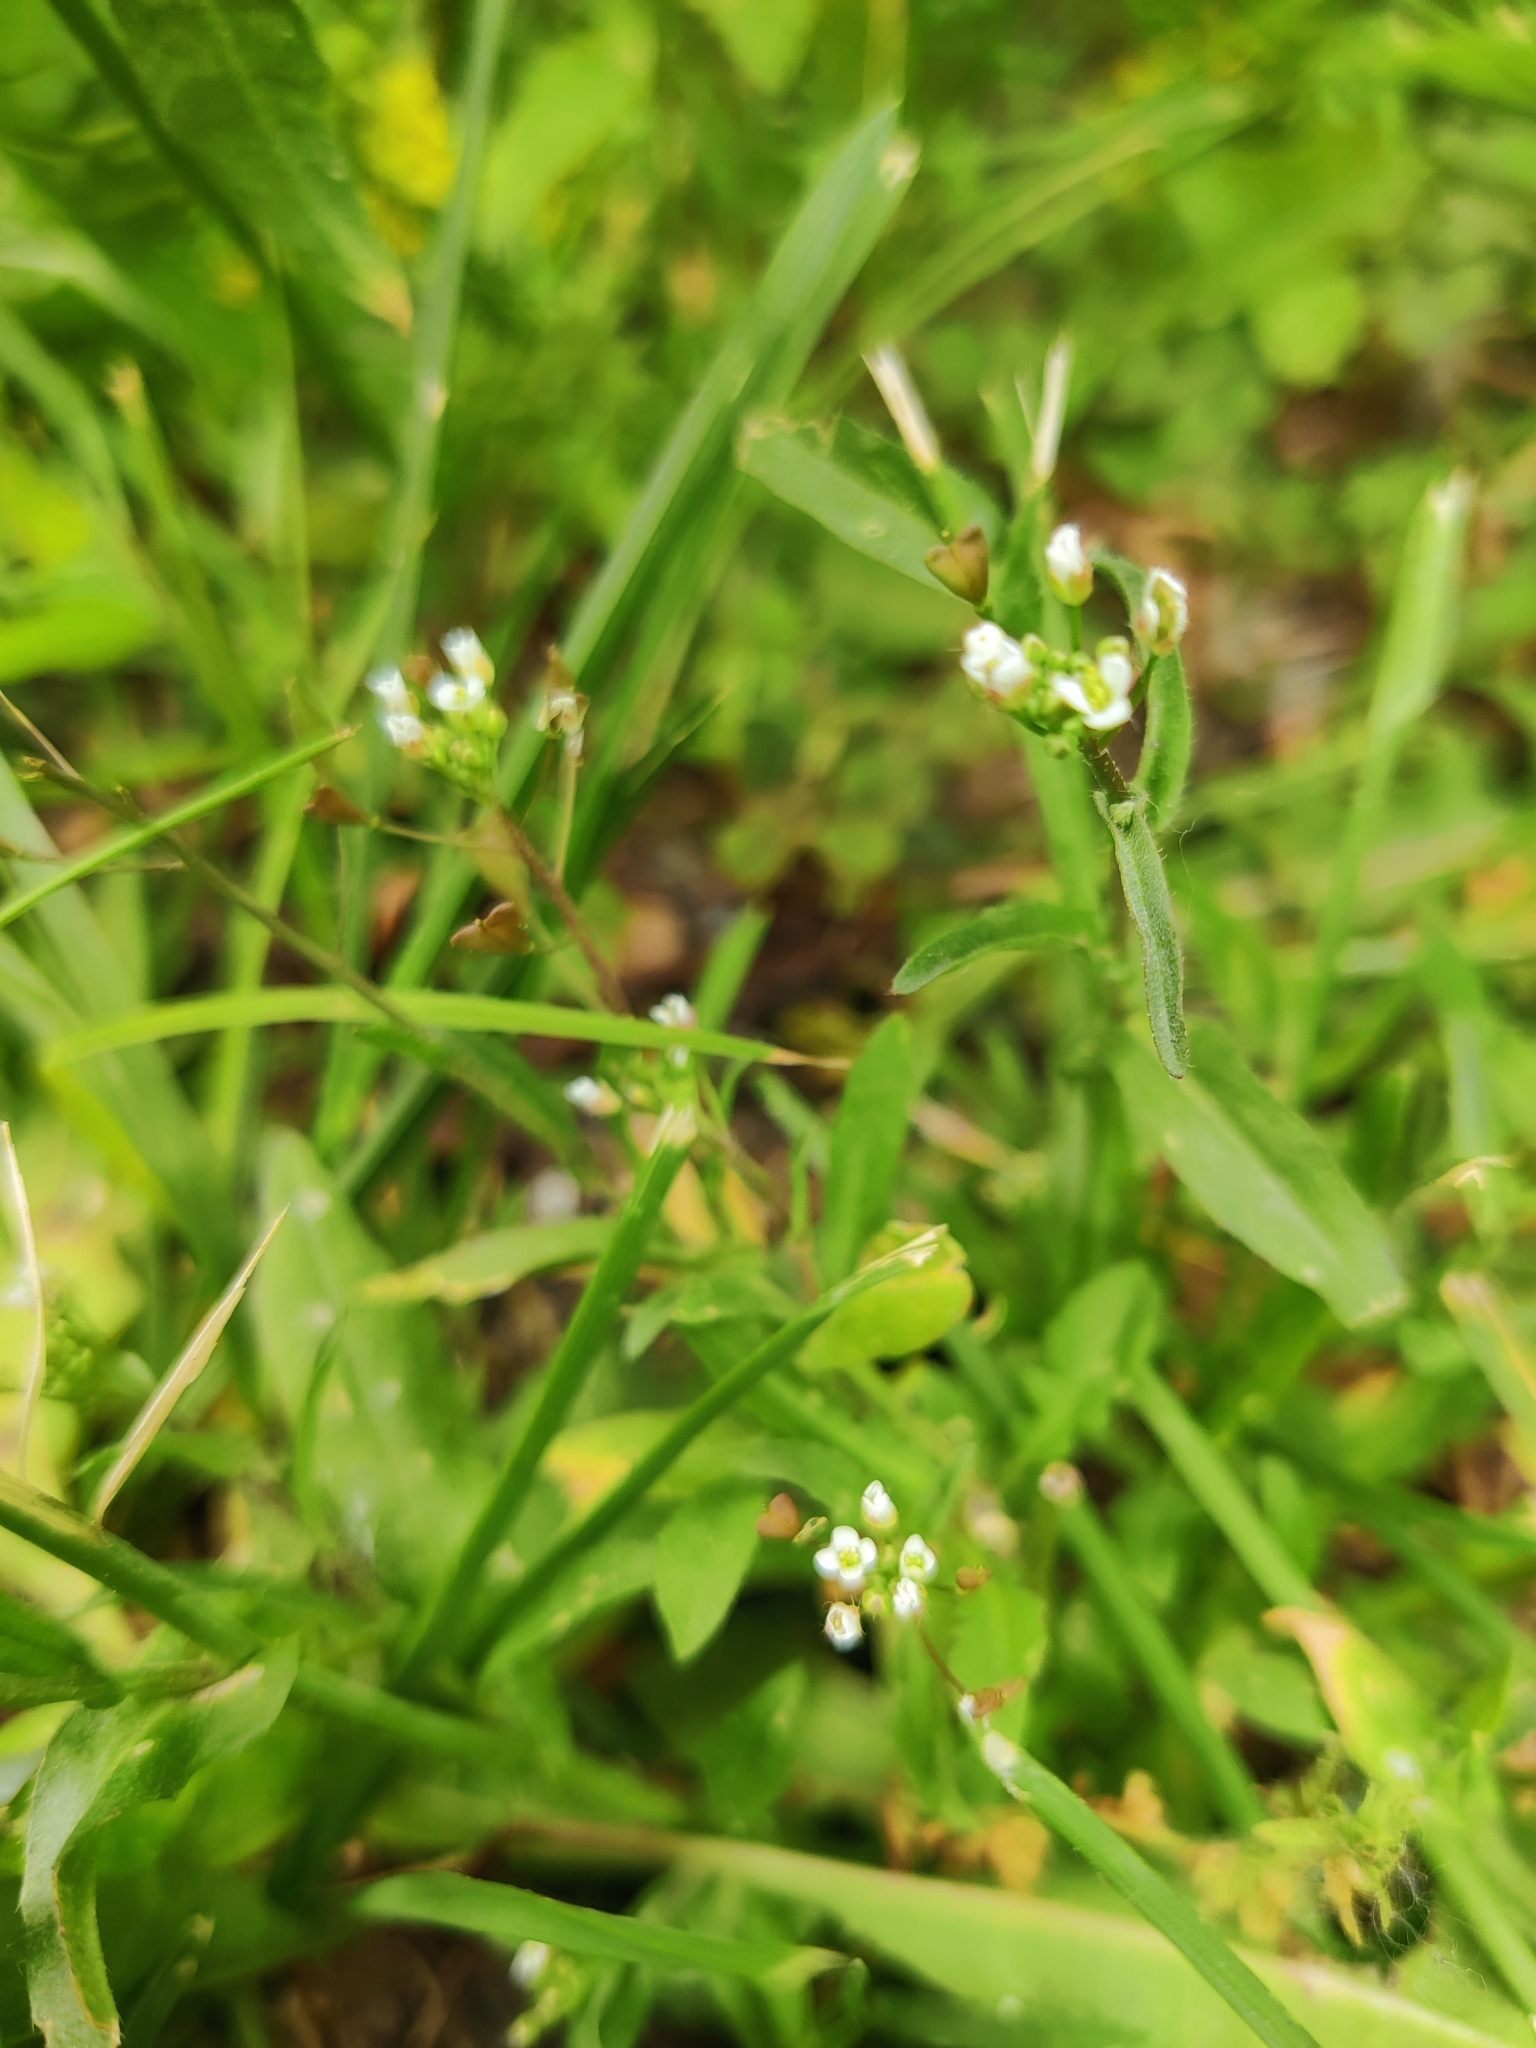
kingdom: Plantae
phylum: Tracheophyta
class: Magnoliopsida
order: Brassicales
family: Brassicaceae
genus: Capsella
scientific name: Capsella bursa-pastoris
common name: Shepherd's purse
